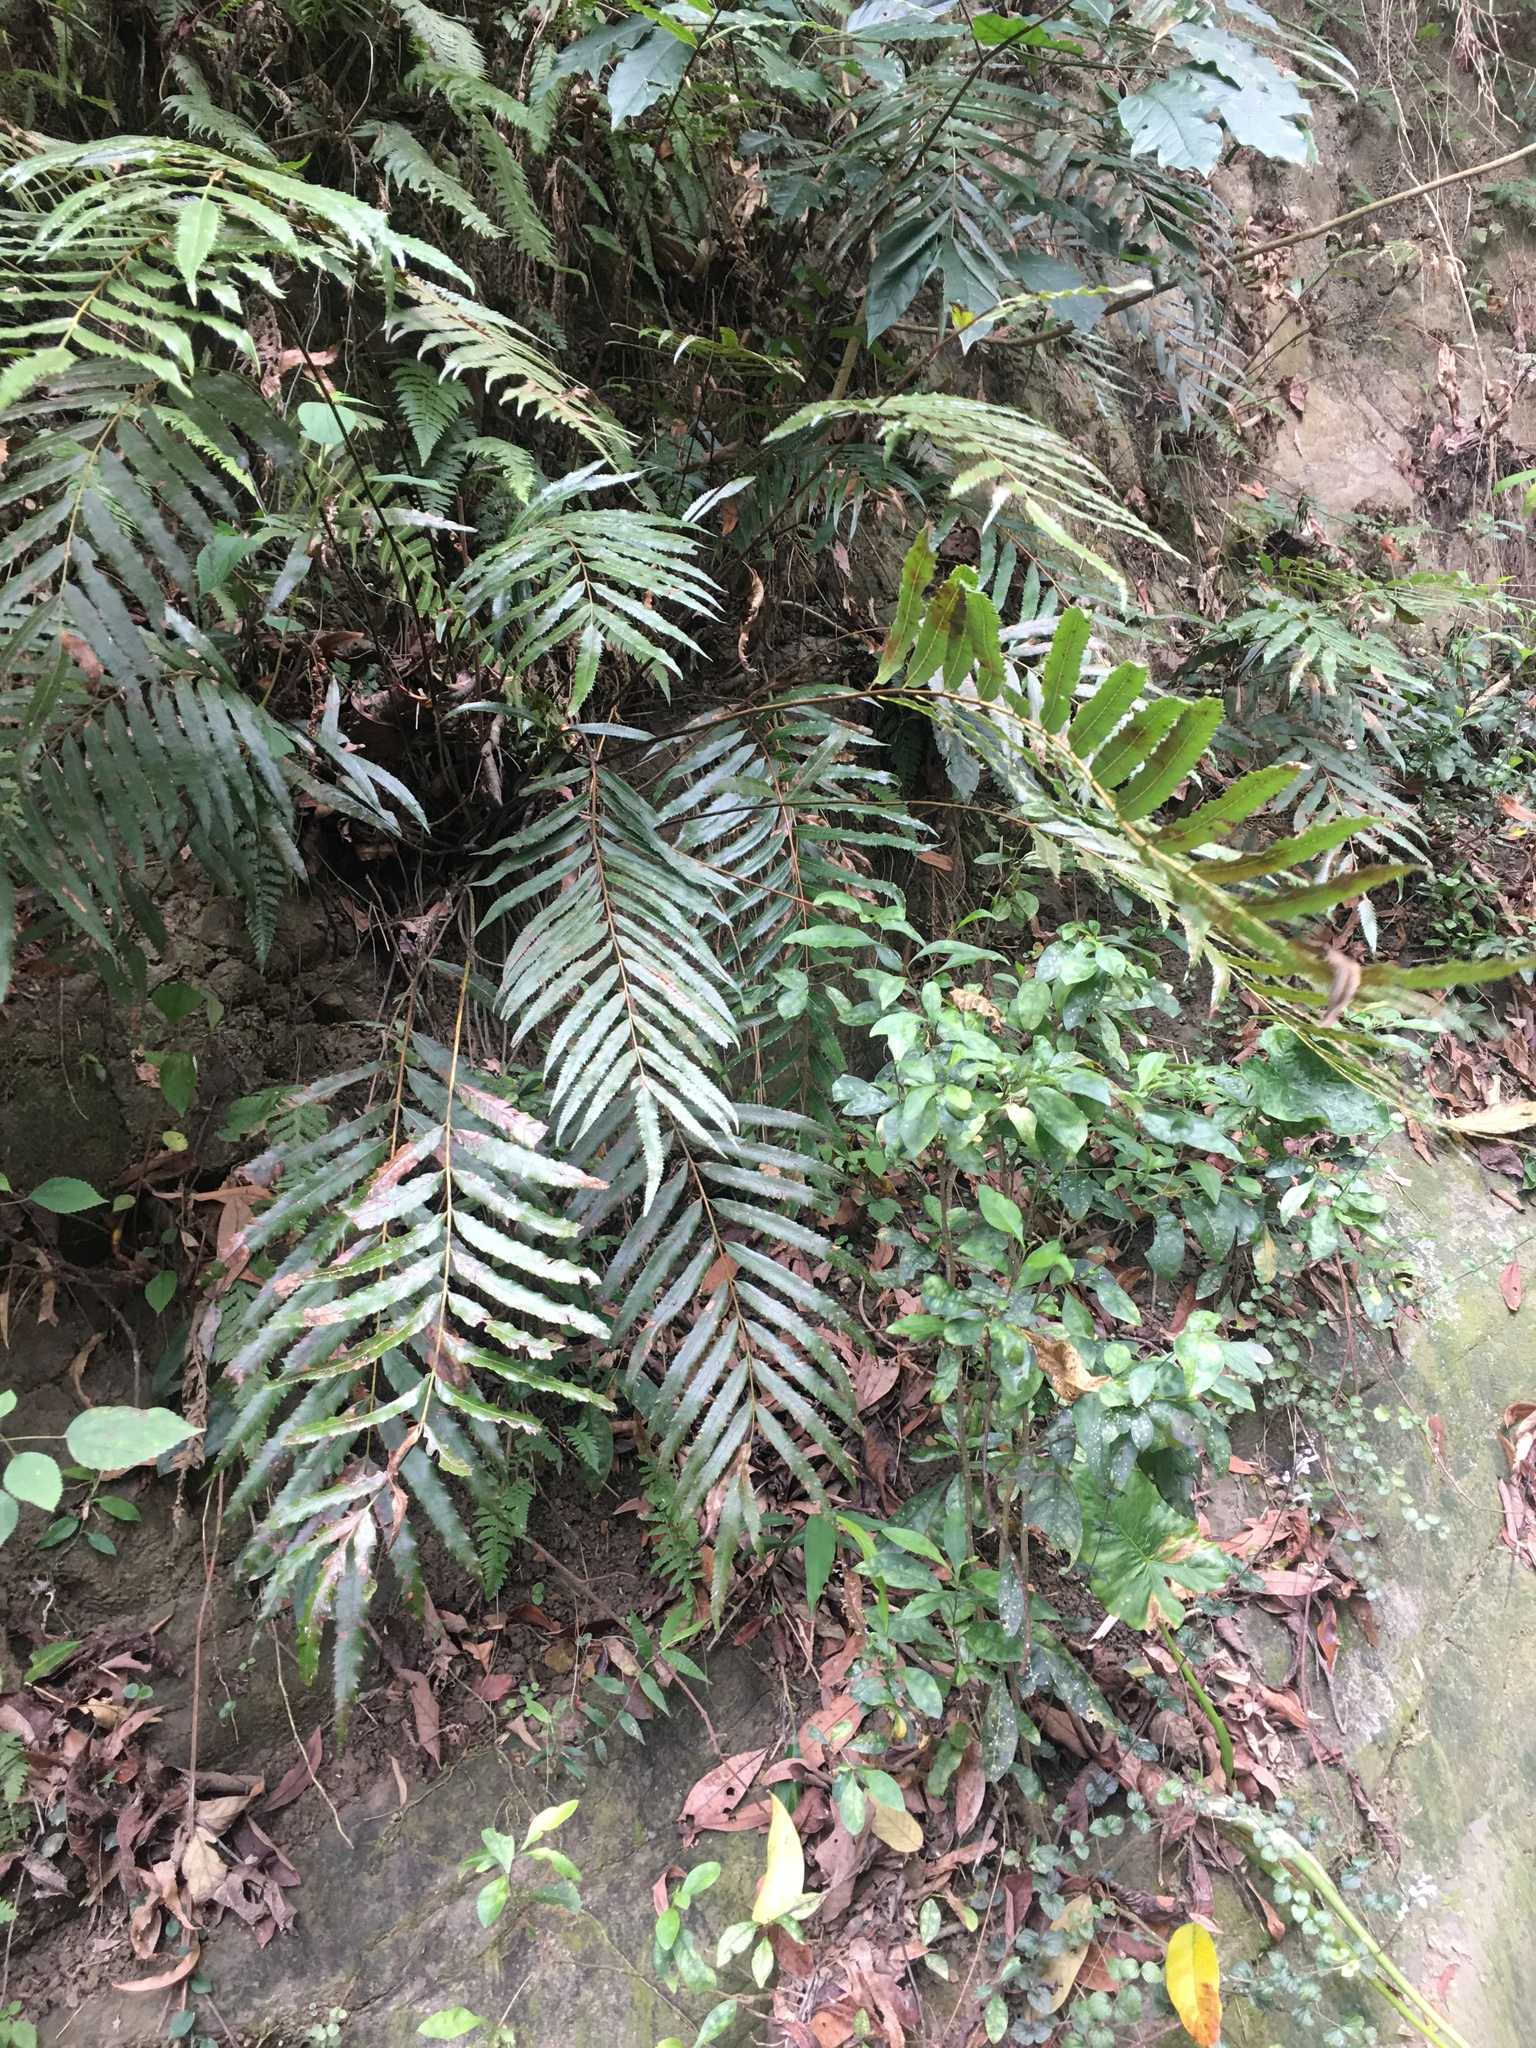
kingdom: Plantae
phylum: Tracheophyta
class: Polypodiopsida
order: Osmundales
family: Osmundaceae
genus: Plenasium
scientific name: Plenasium banksiifolium
